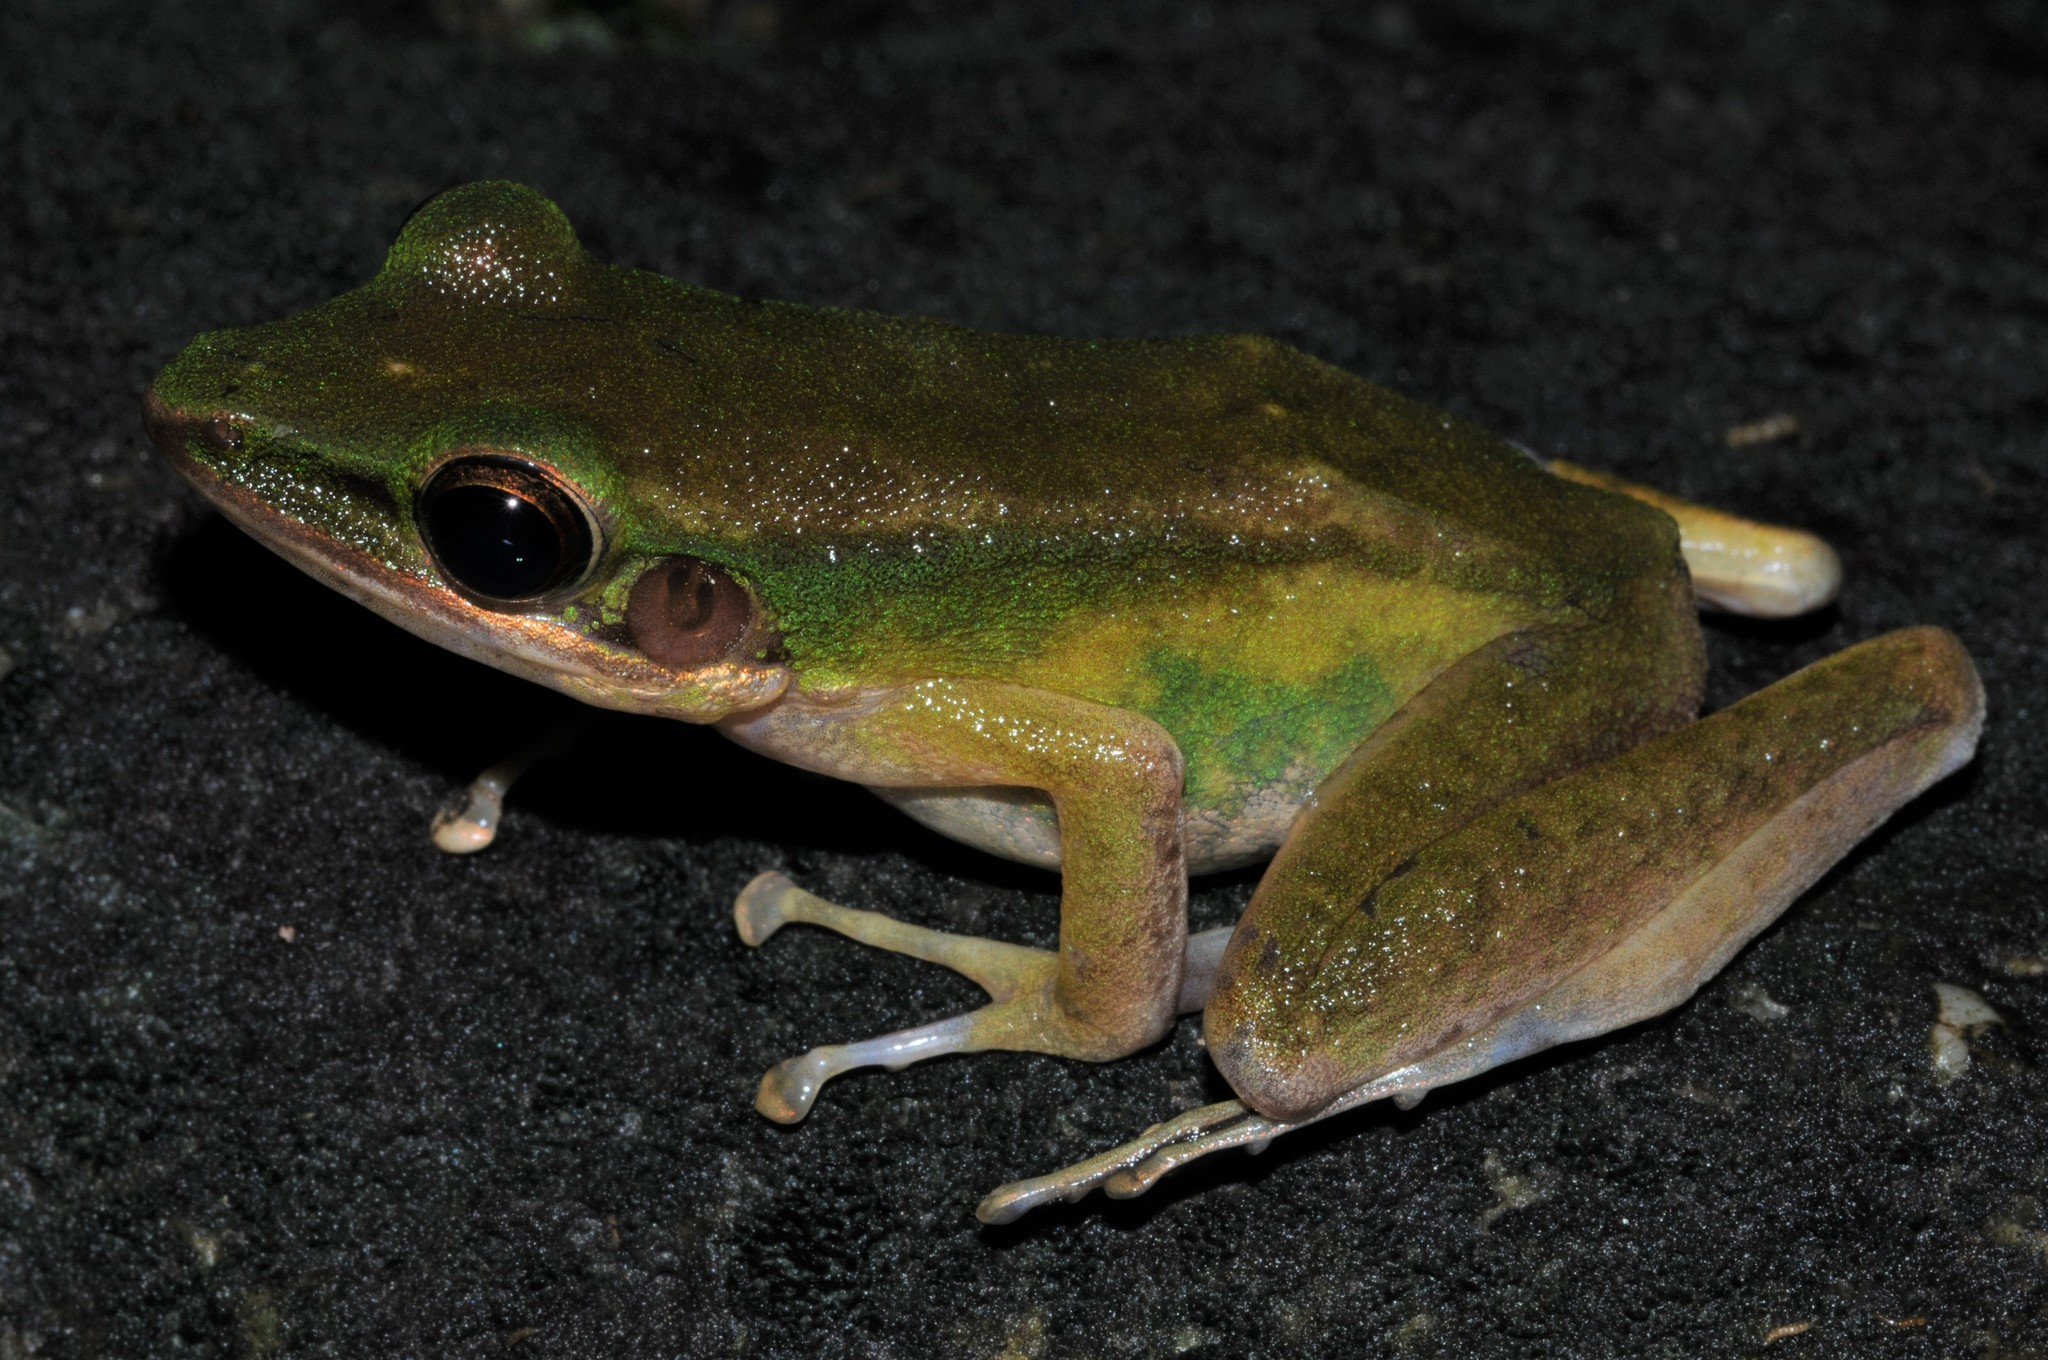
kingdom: Animalia
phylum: Chordata
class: Amphibia
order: Anura
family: Ranidae
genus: Chalcorana
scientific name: Chalcorana labialis
